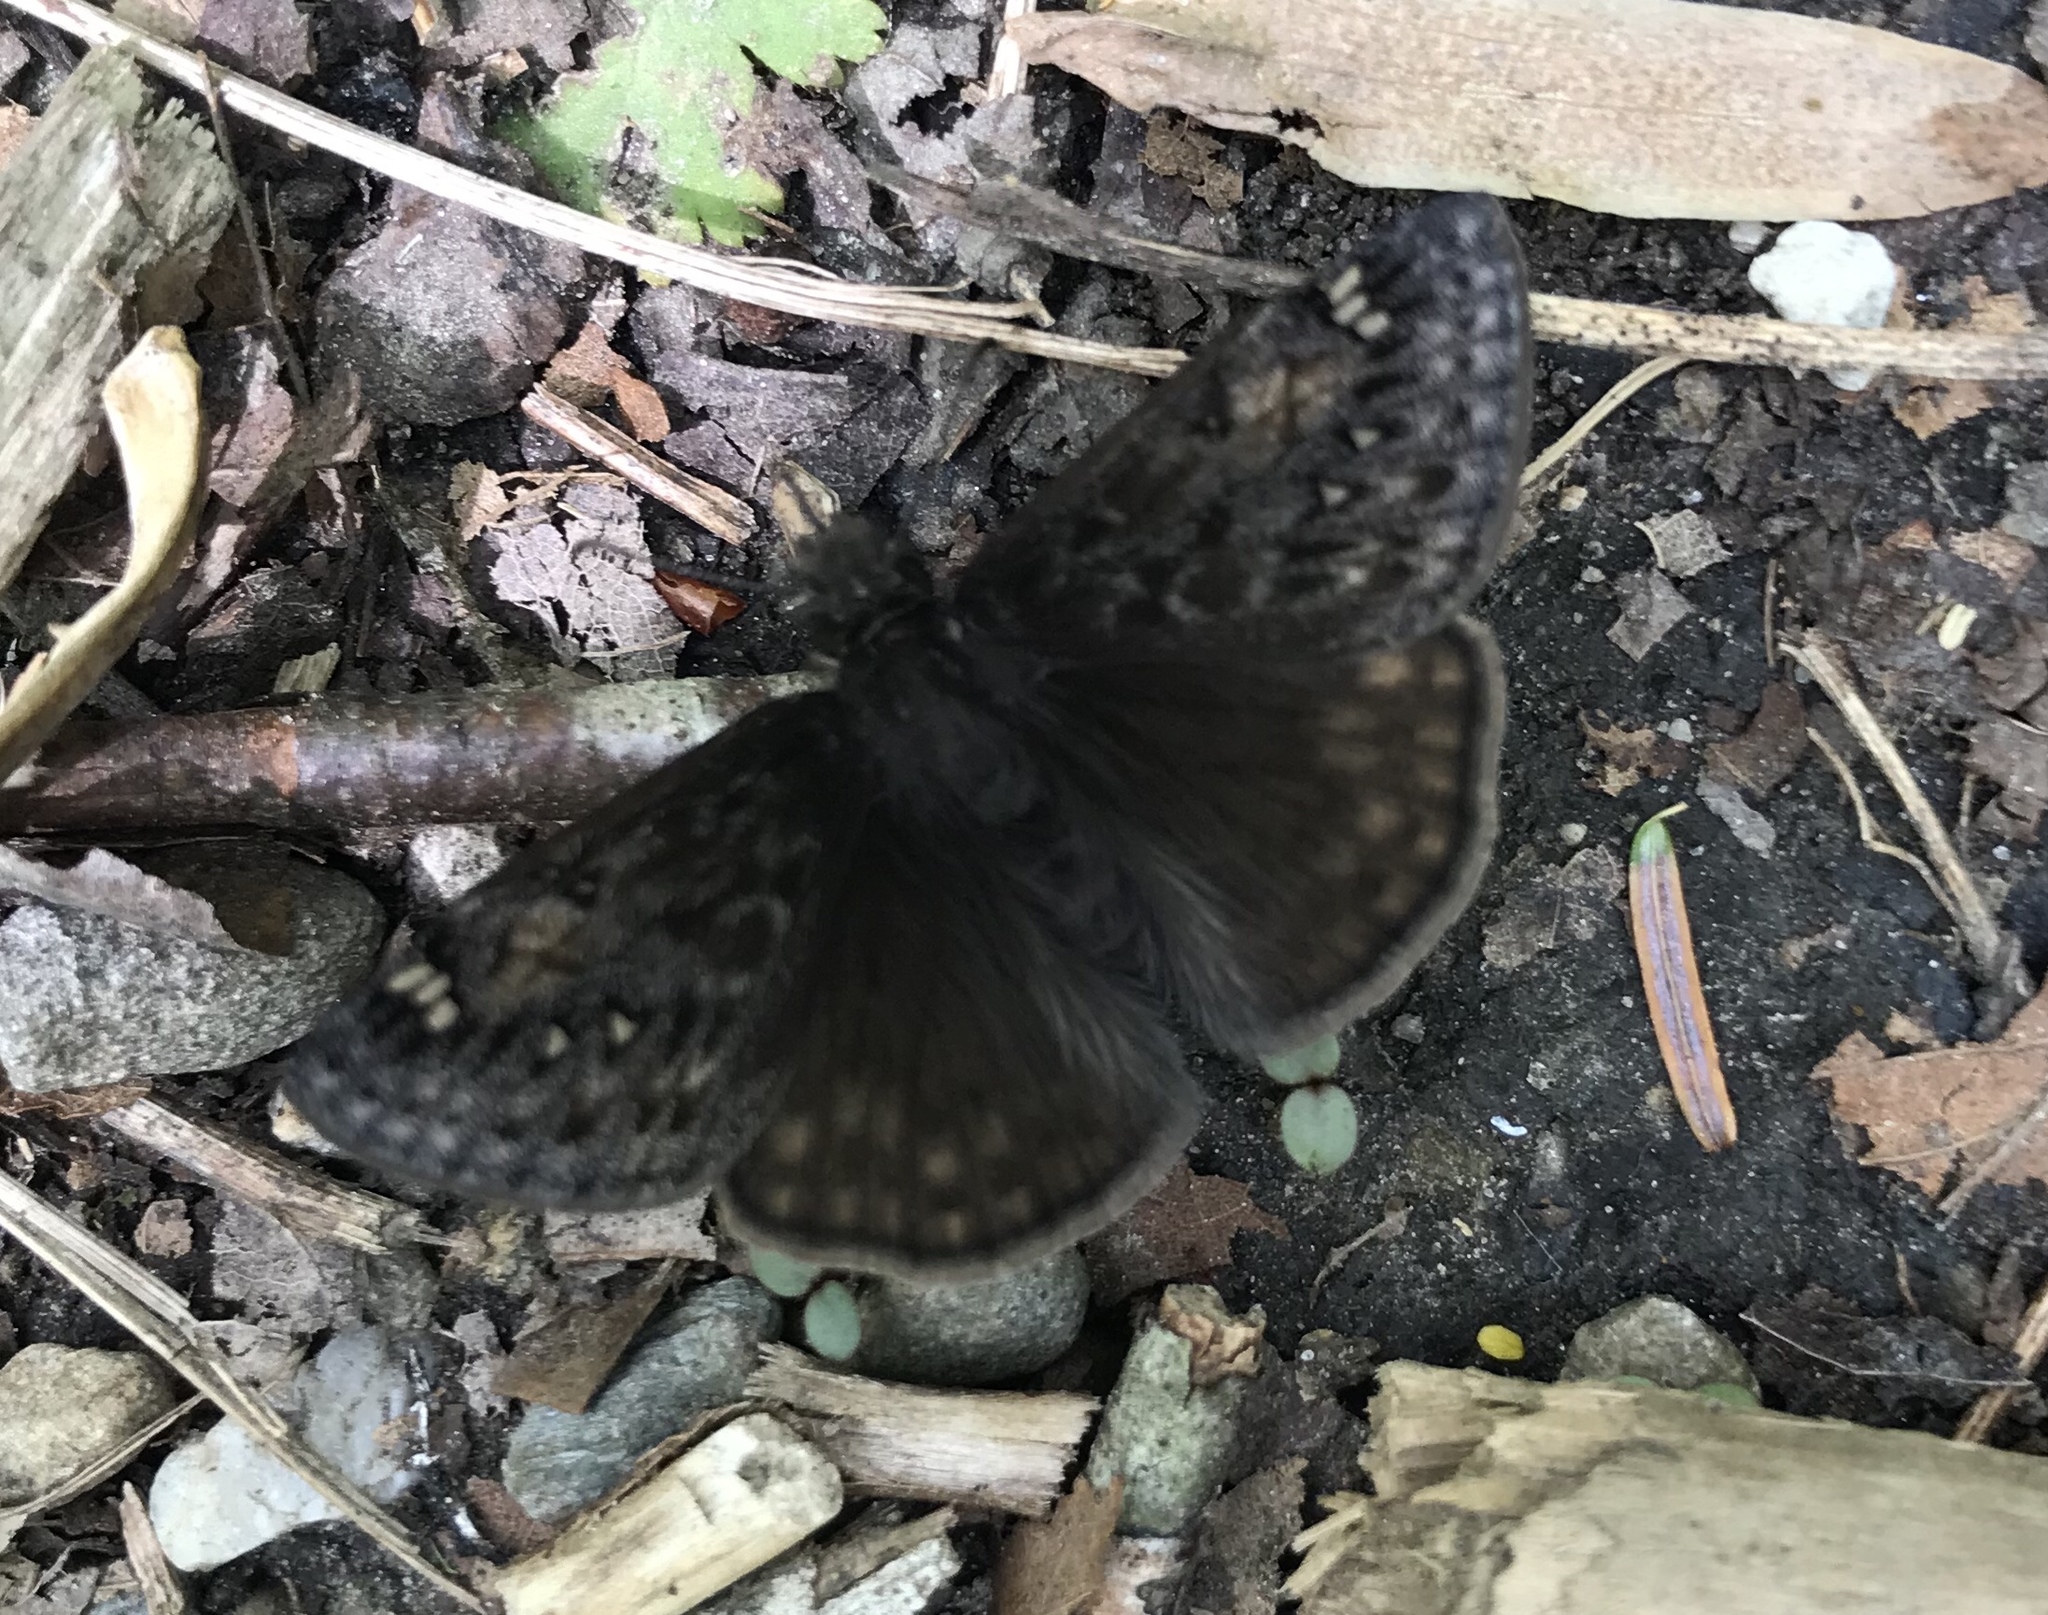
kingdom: Animalia
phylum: Arthropoda
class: Insecta
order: Lepidoptera
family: Hesperiidae
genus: Erynnis
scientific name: Erynnis juvenalis
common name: Juvenal's duskywing
